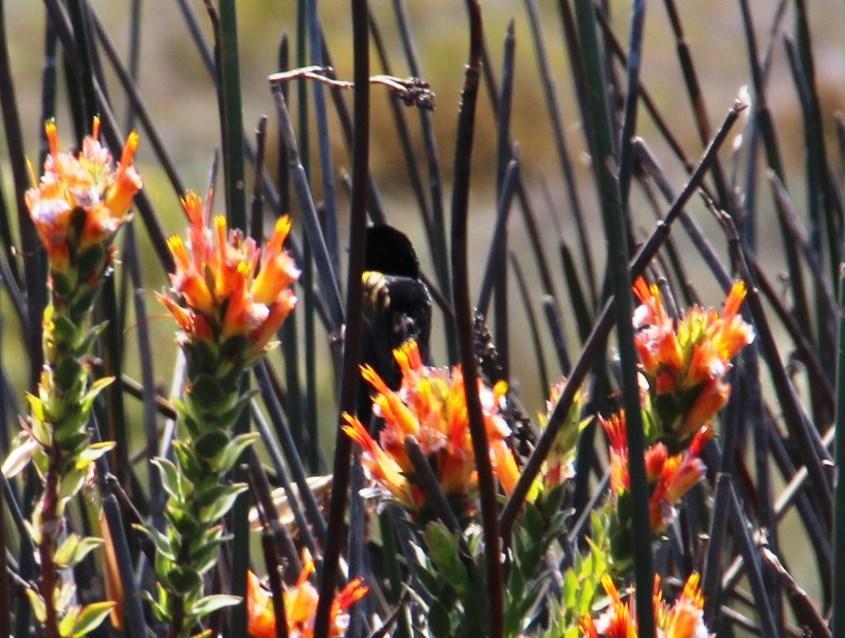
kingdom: Animalia
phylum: Chordata
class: Aves
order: Passeriformes
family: Ploceidae
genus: Euplectes
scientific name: Euplectes capensis
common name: Yellow bishop
